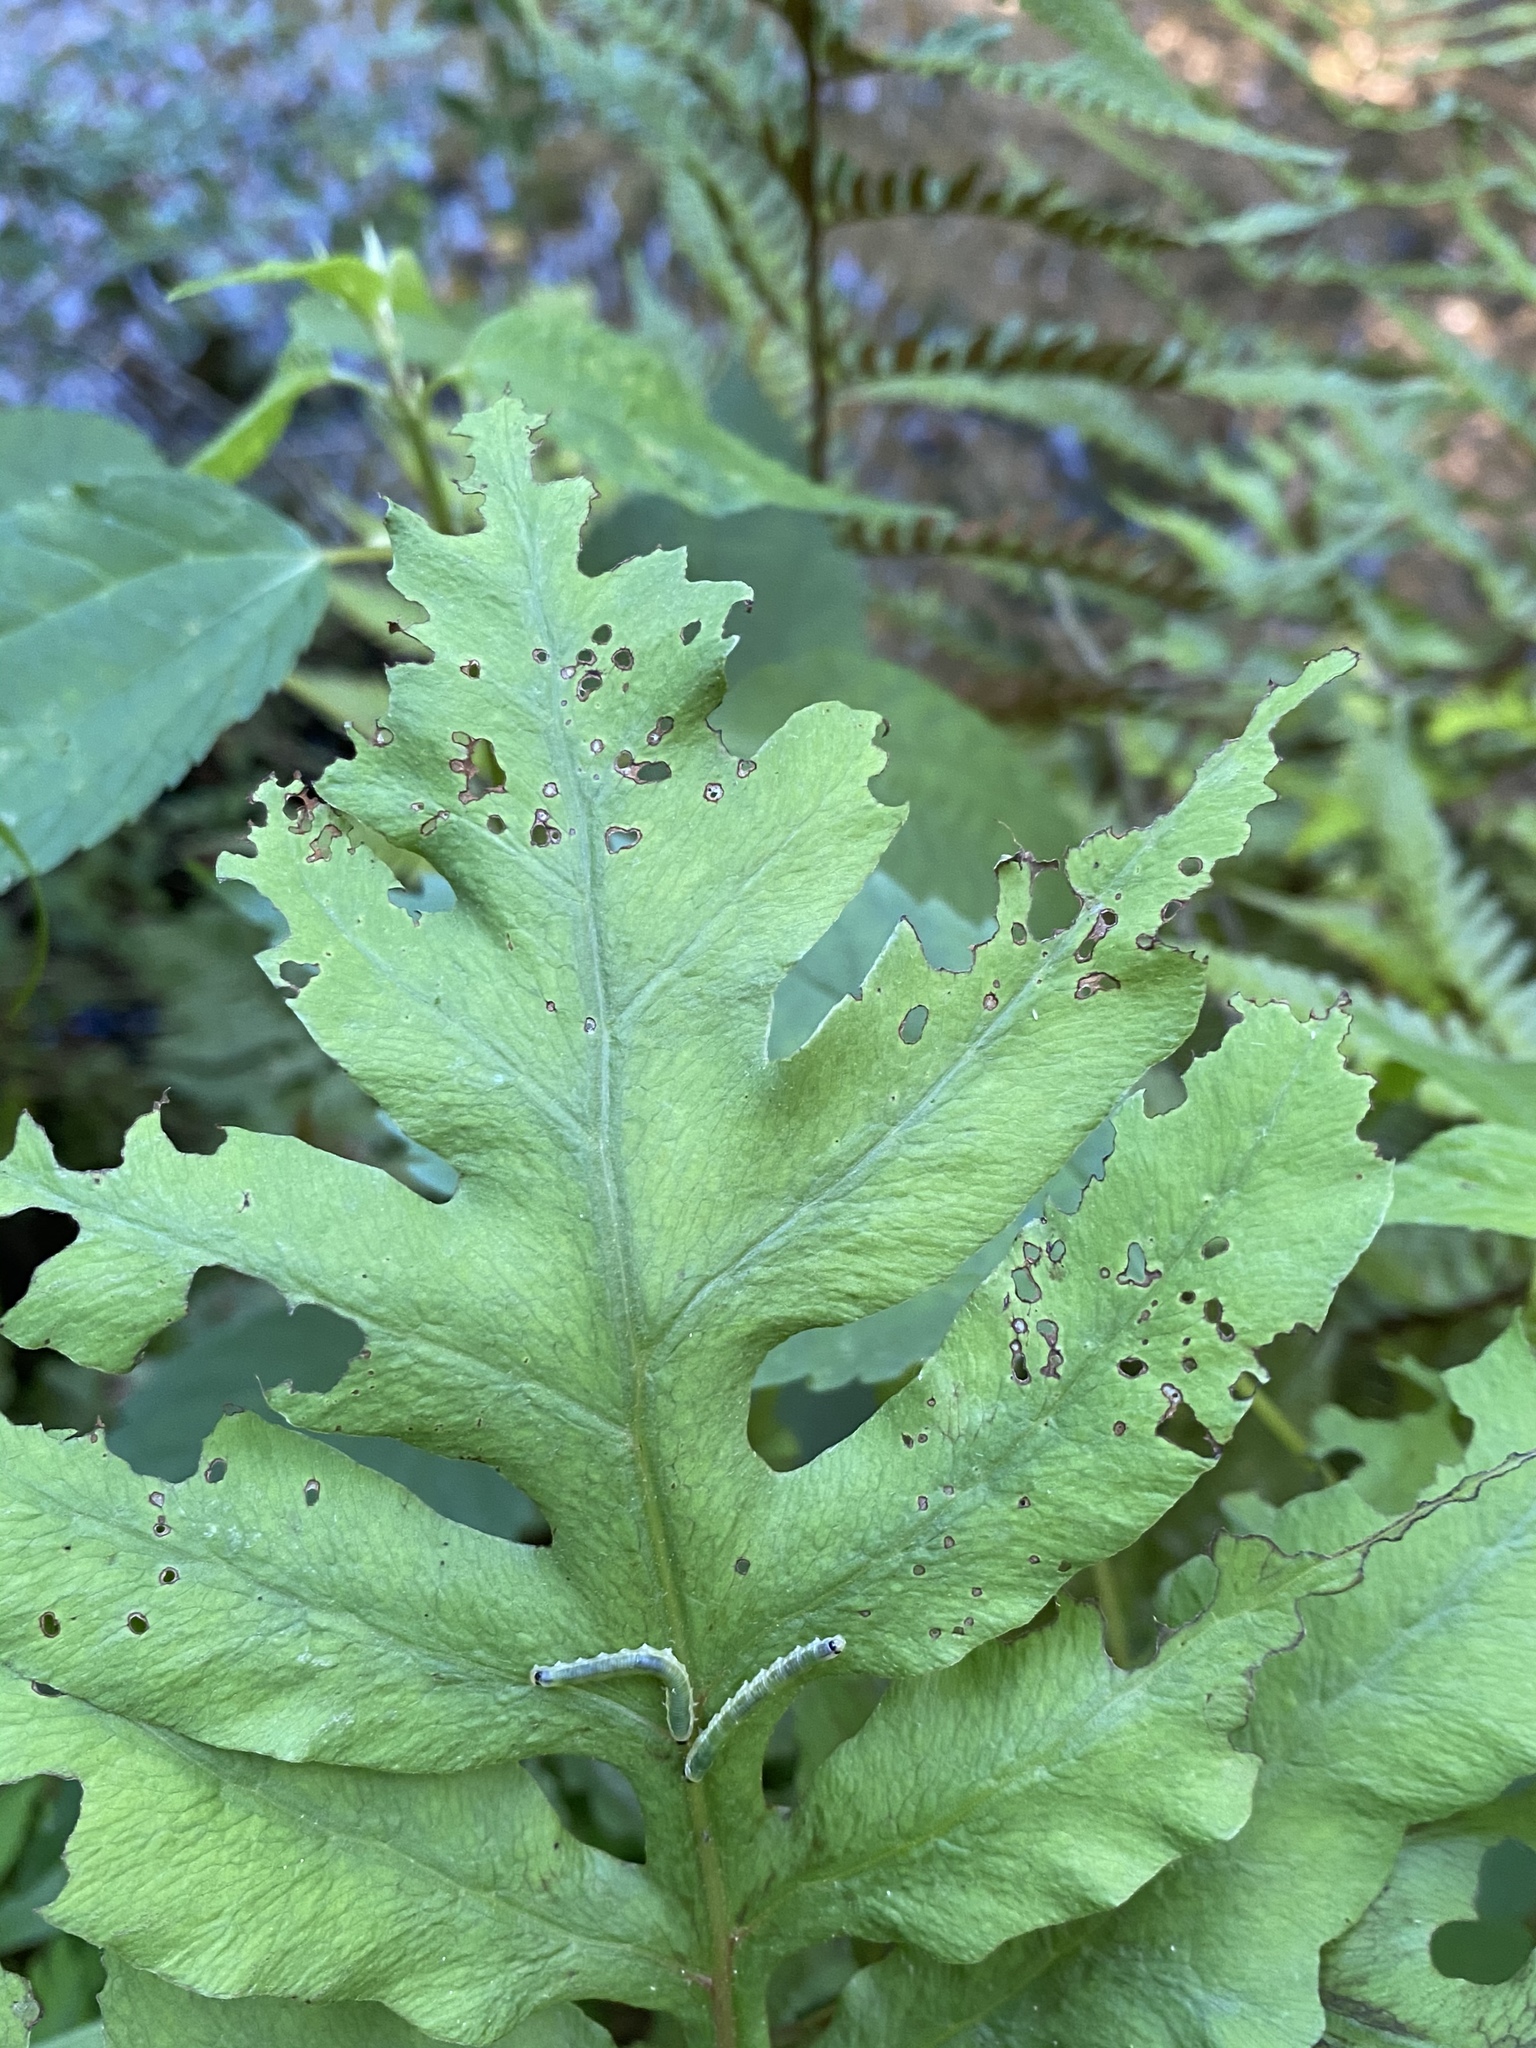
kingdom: Plantae
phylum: Tracheophyta
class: Polypodiopsida
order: Polypodiales
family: Onocleaceae
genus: Onoclea
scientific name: Onoclea sensibilis
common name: Sensitive fern
